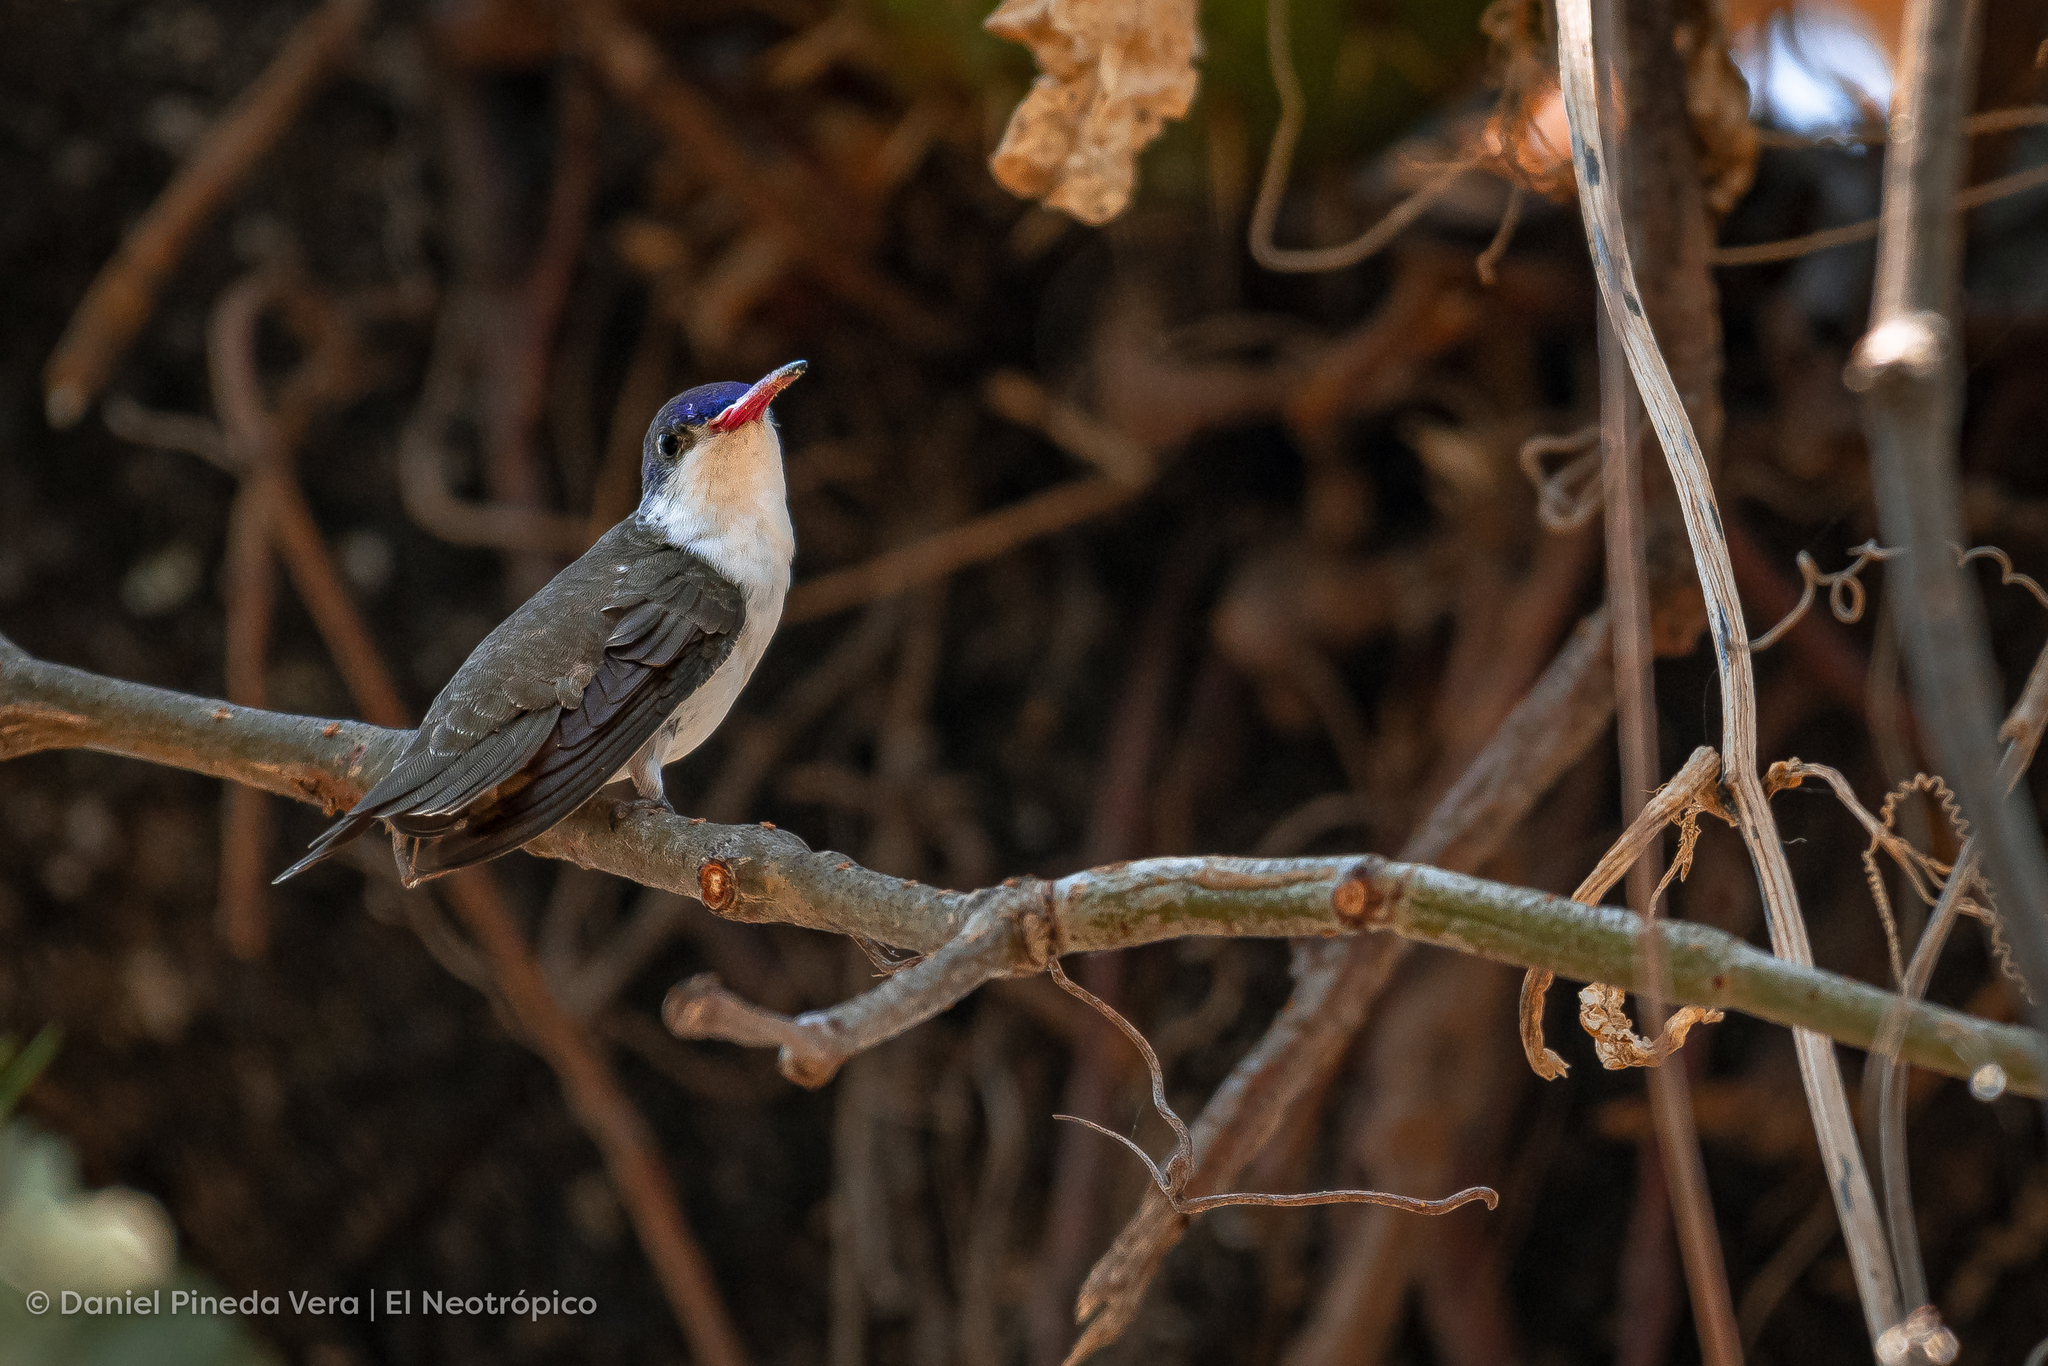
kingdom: Animalia
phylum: Chordata
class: Aves
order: Apodiformes
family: Trochilidae
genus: Leucolia
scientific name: Leucolia violiceps
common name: Violet-crowned hummingbird
